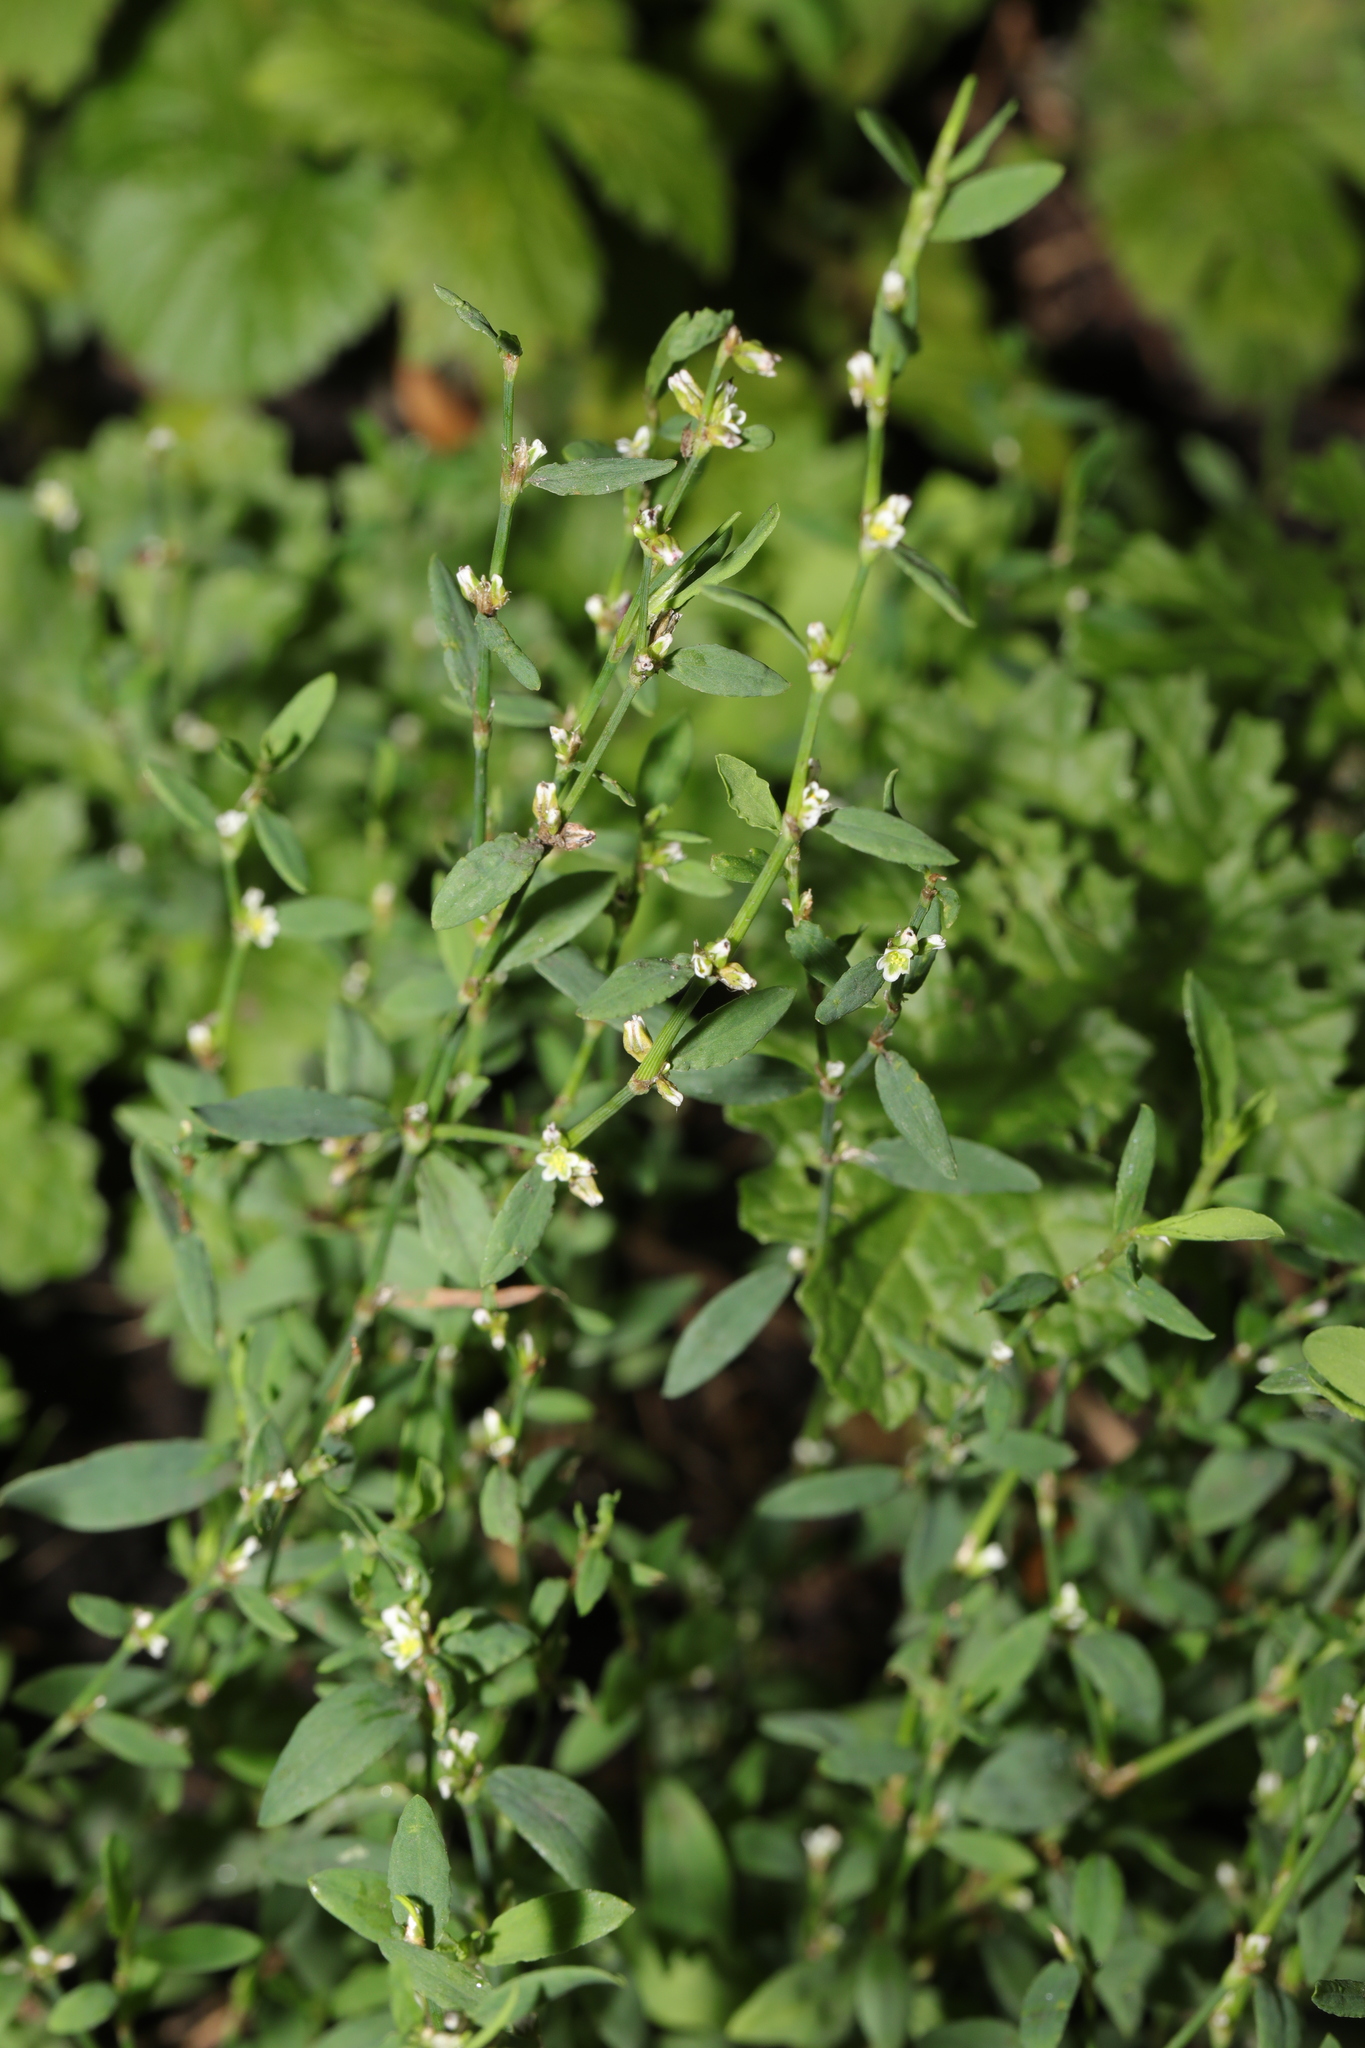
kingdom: Plantae
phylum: Tracheophyta
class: Magnoliopsida
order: Caryophyllales
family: Polygonaceae
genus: Polygonum
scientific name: Polygonum aviculare
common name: Prostrate knotweed
